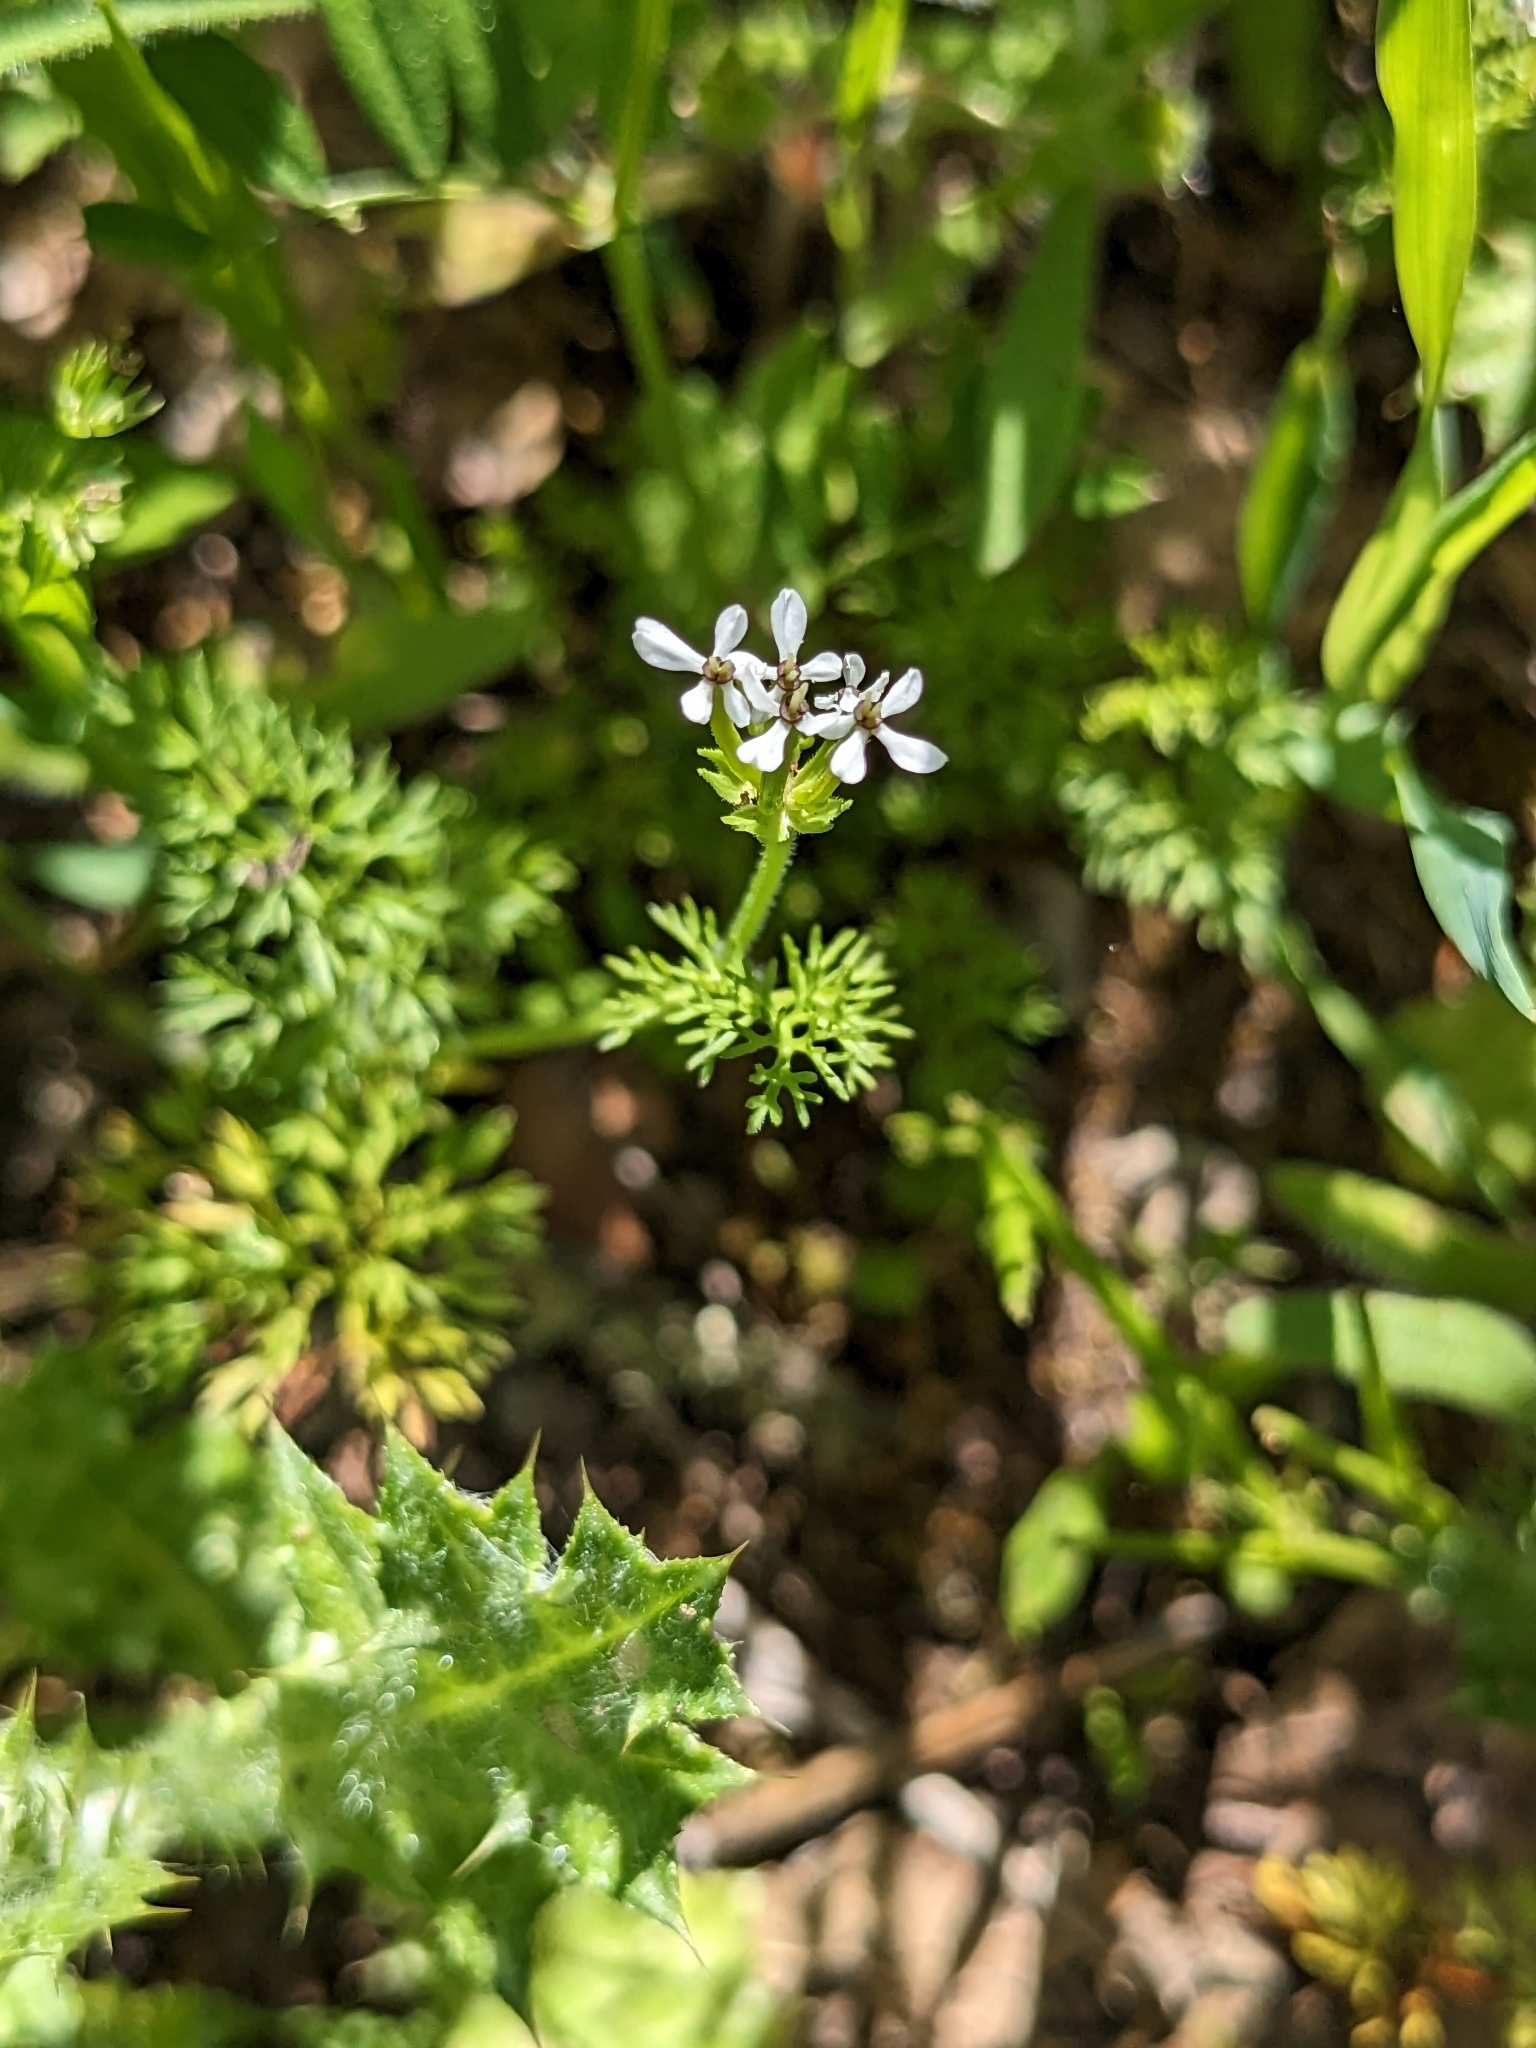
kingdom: Plantae
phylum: Tracheophyta
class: Magnoliopsida
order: Apiales
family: Apiaceae
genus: Scandix
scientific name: Scandix pecten-veneris
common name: Shepherd's-needle
